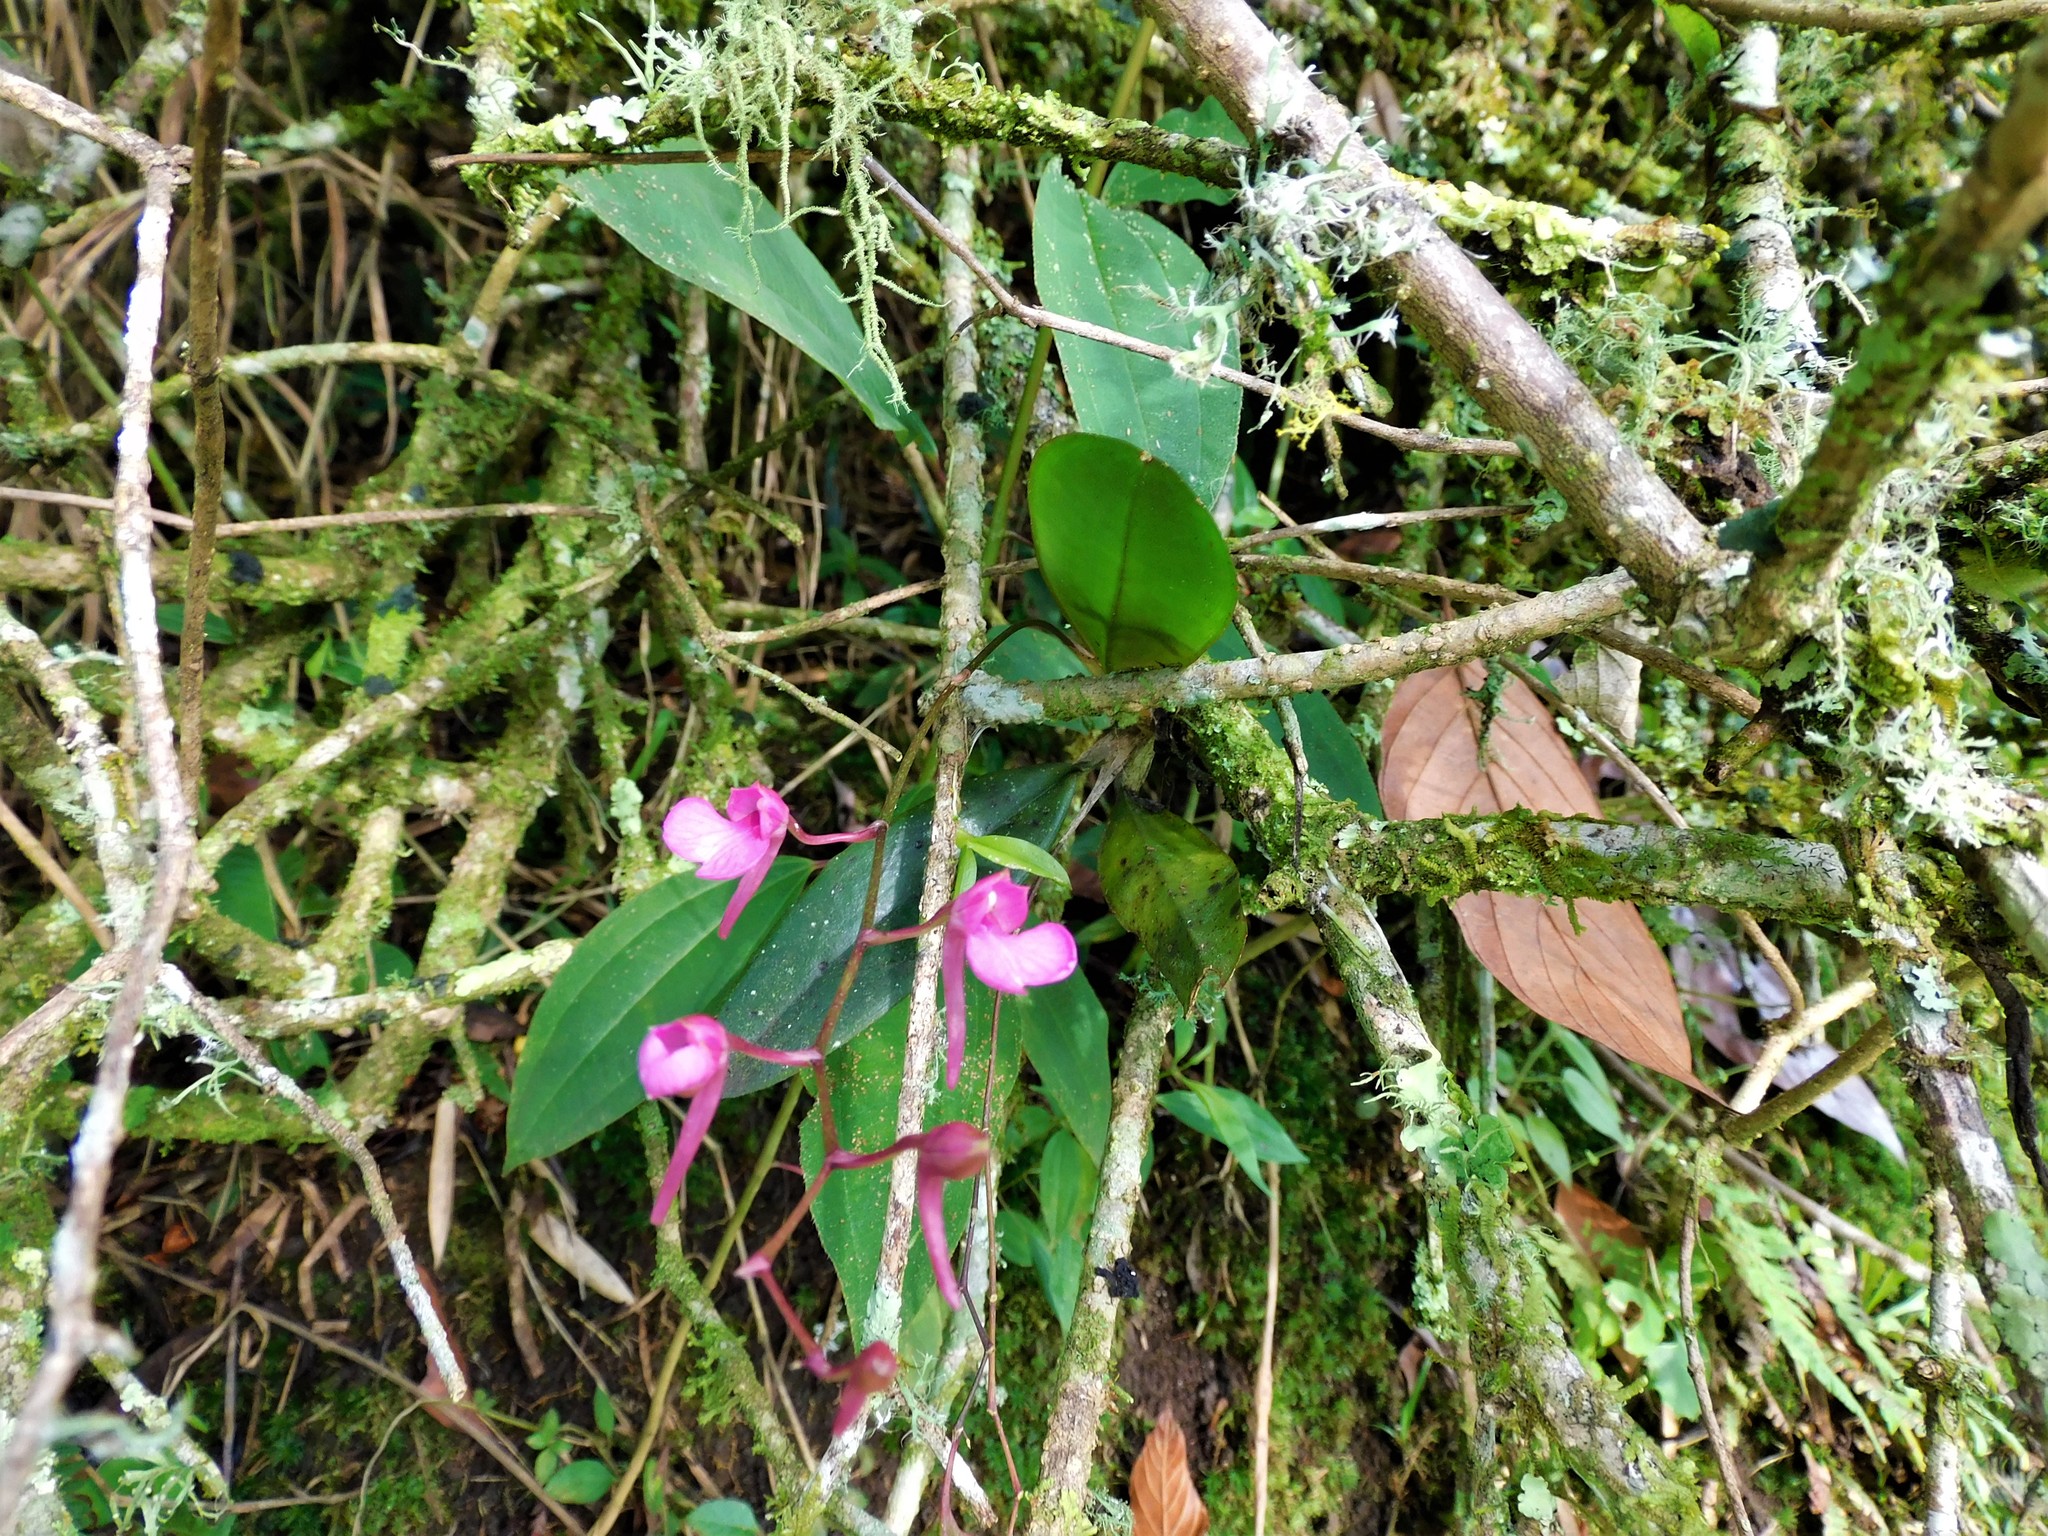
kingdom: Plantae
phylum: Tracheophyta
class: Liliopsida
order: Asparagales
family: Orchidaceae
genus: Comparettia
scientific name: Comparettia falcata
